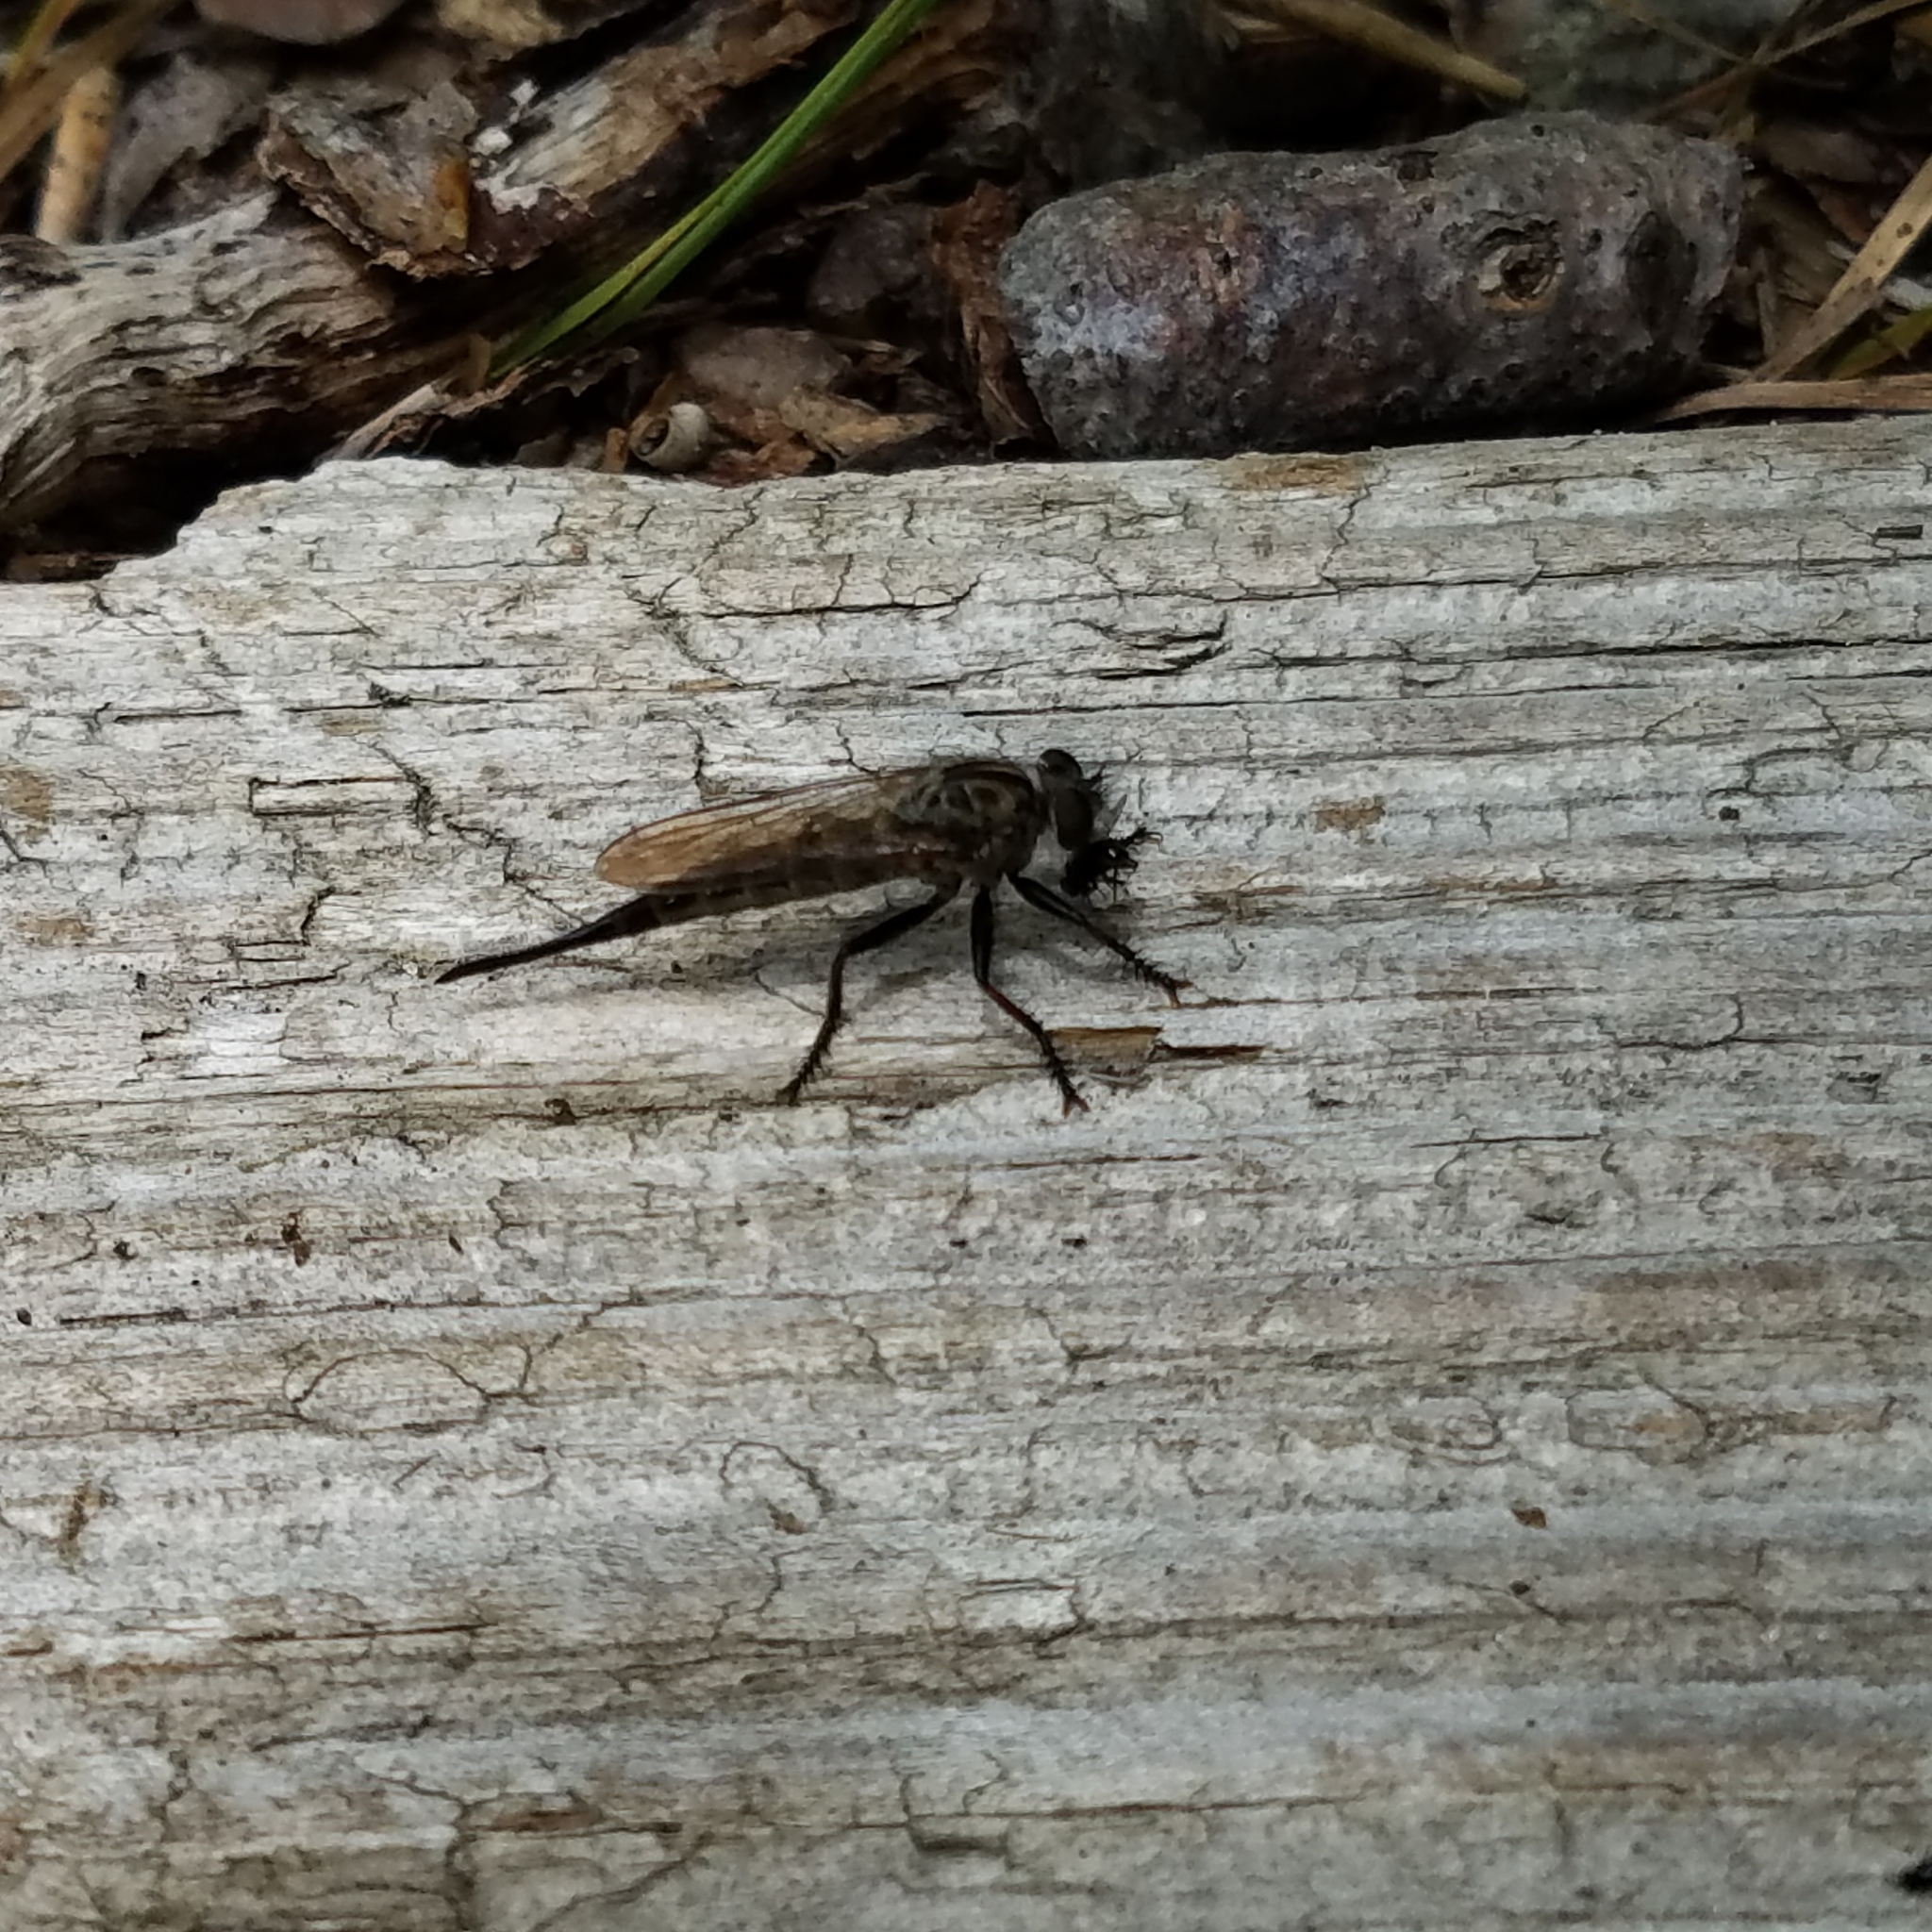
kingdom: Animalia
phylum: Arthropoda
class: Insecta
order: Diptera
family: Asilidae
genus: Efferia
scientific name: Efferia aestuans
